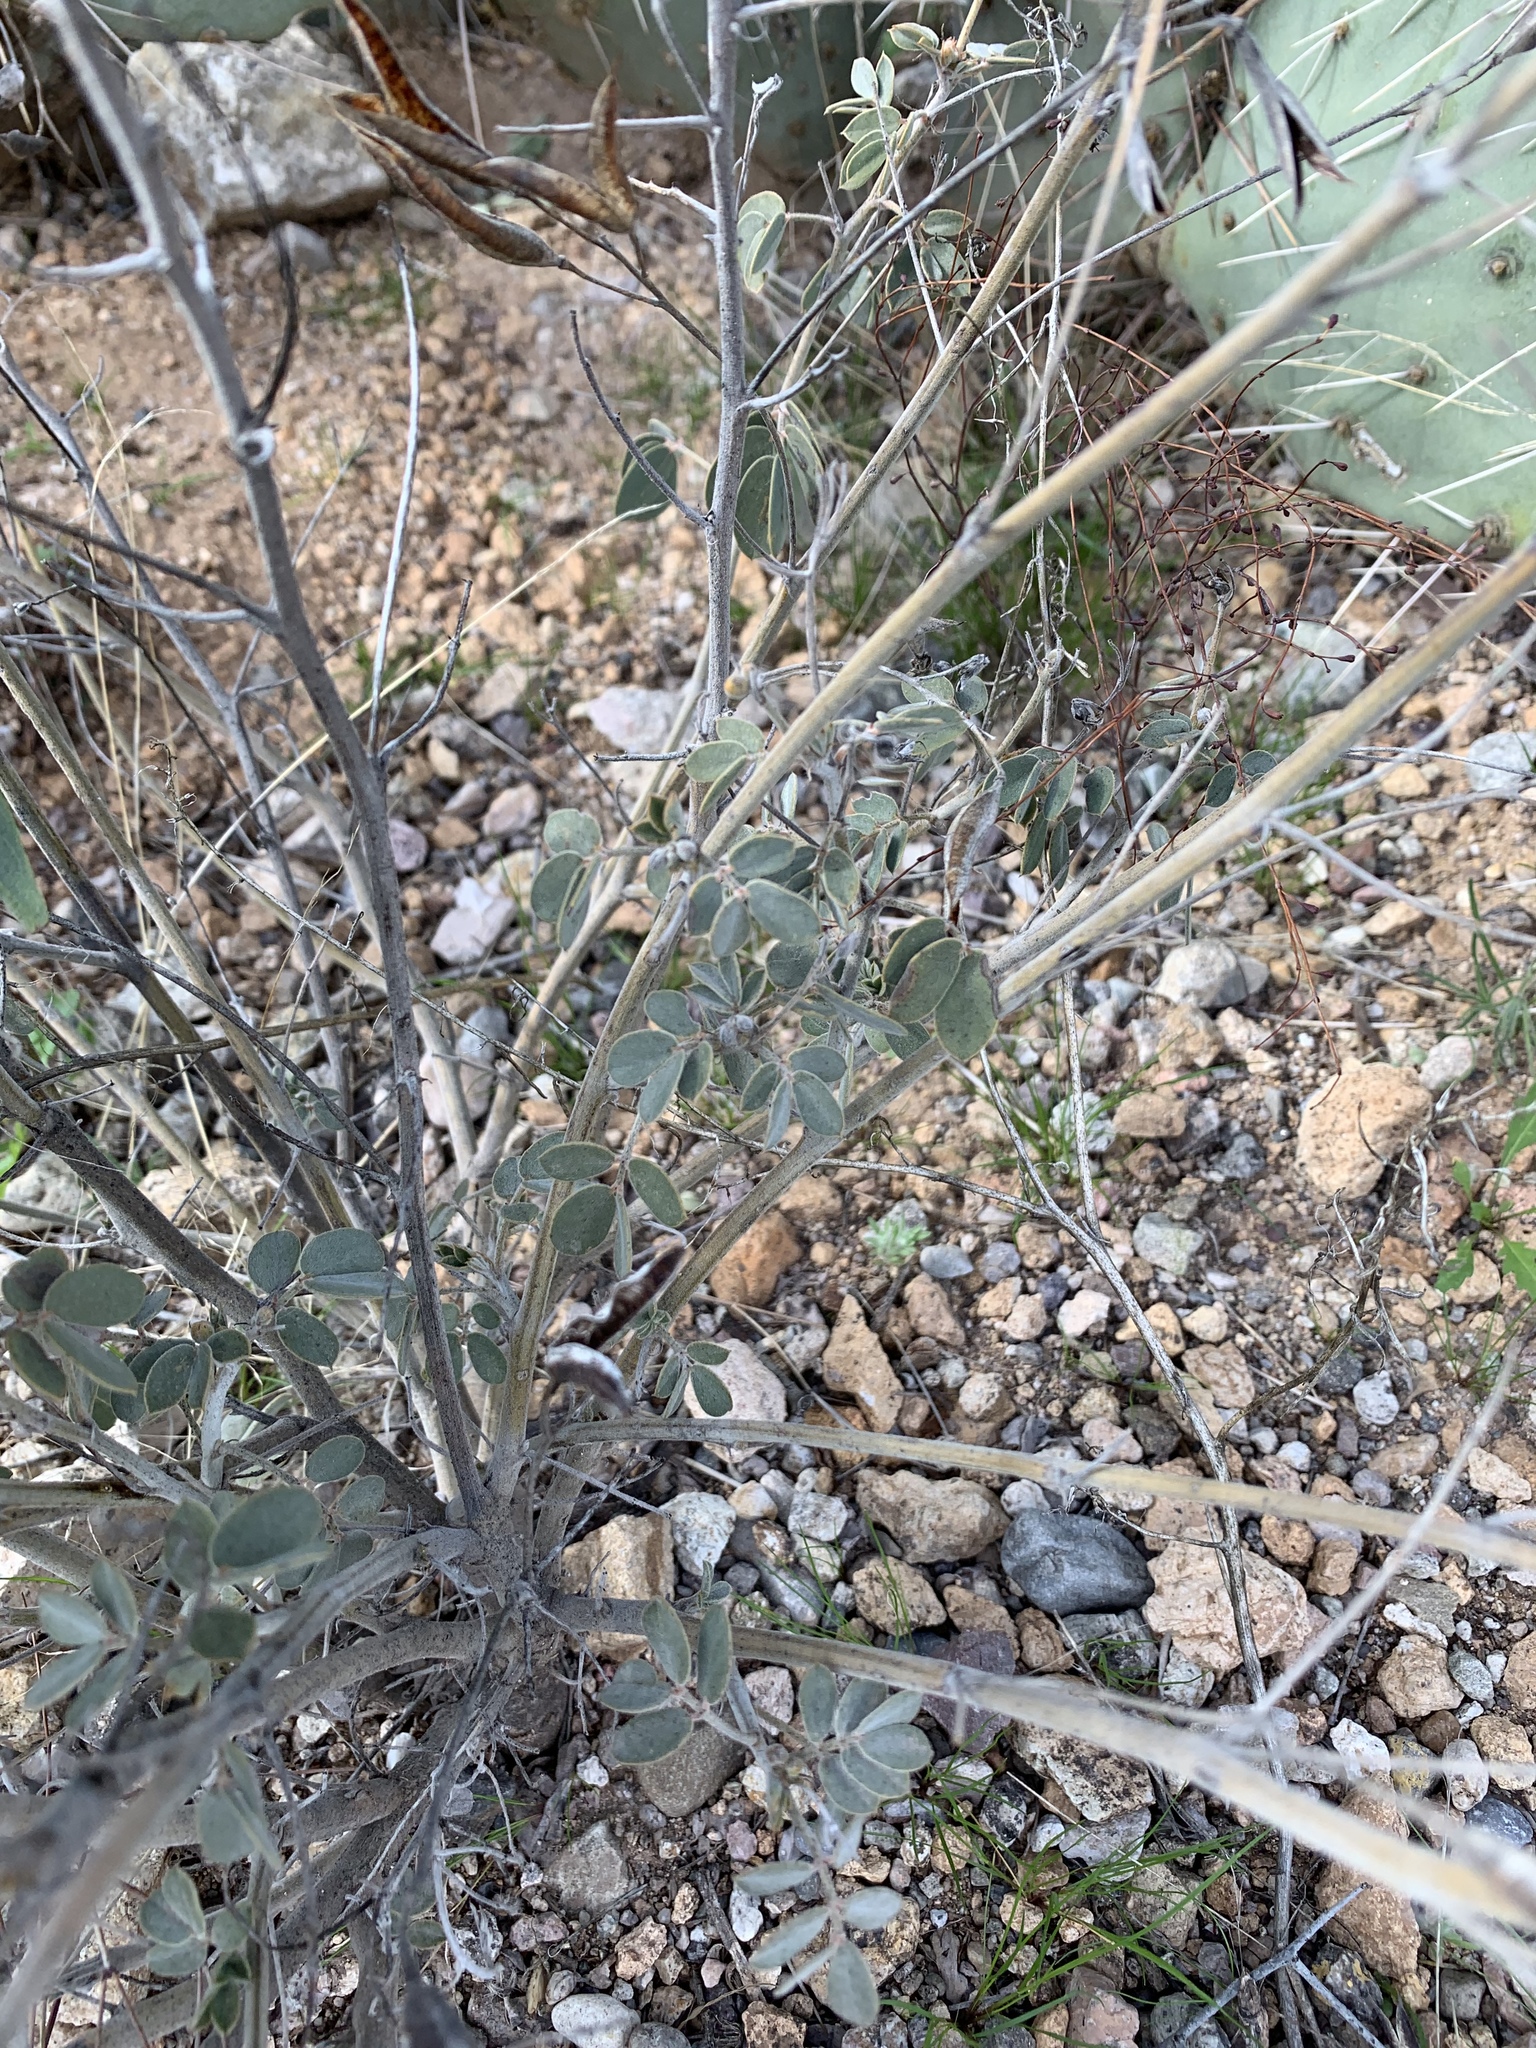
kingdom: Plantae
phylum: Tracheophyta
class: Magnoliopsida
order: Fabales
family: Fabaceae
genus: Senna
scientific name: Senna covesii
